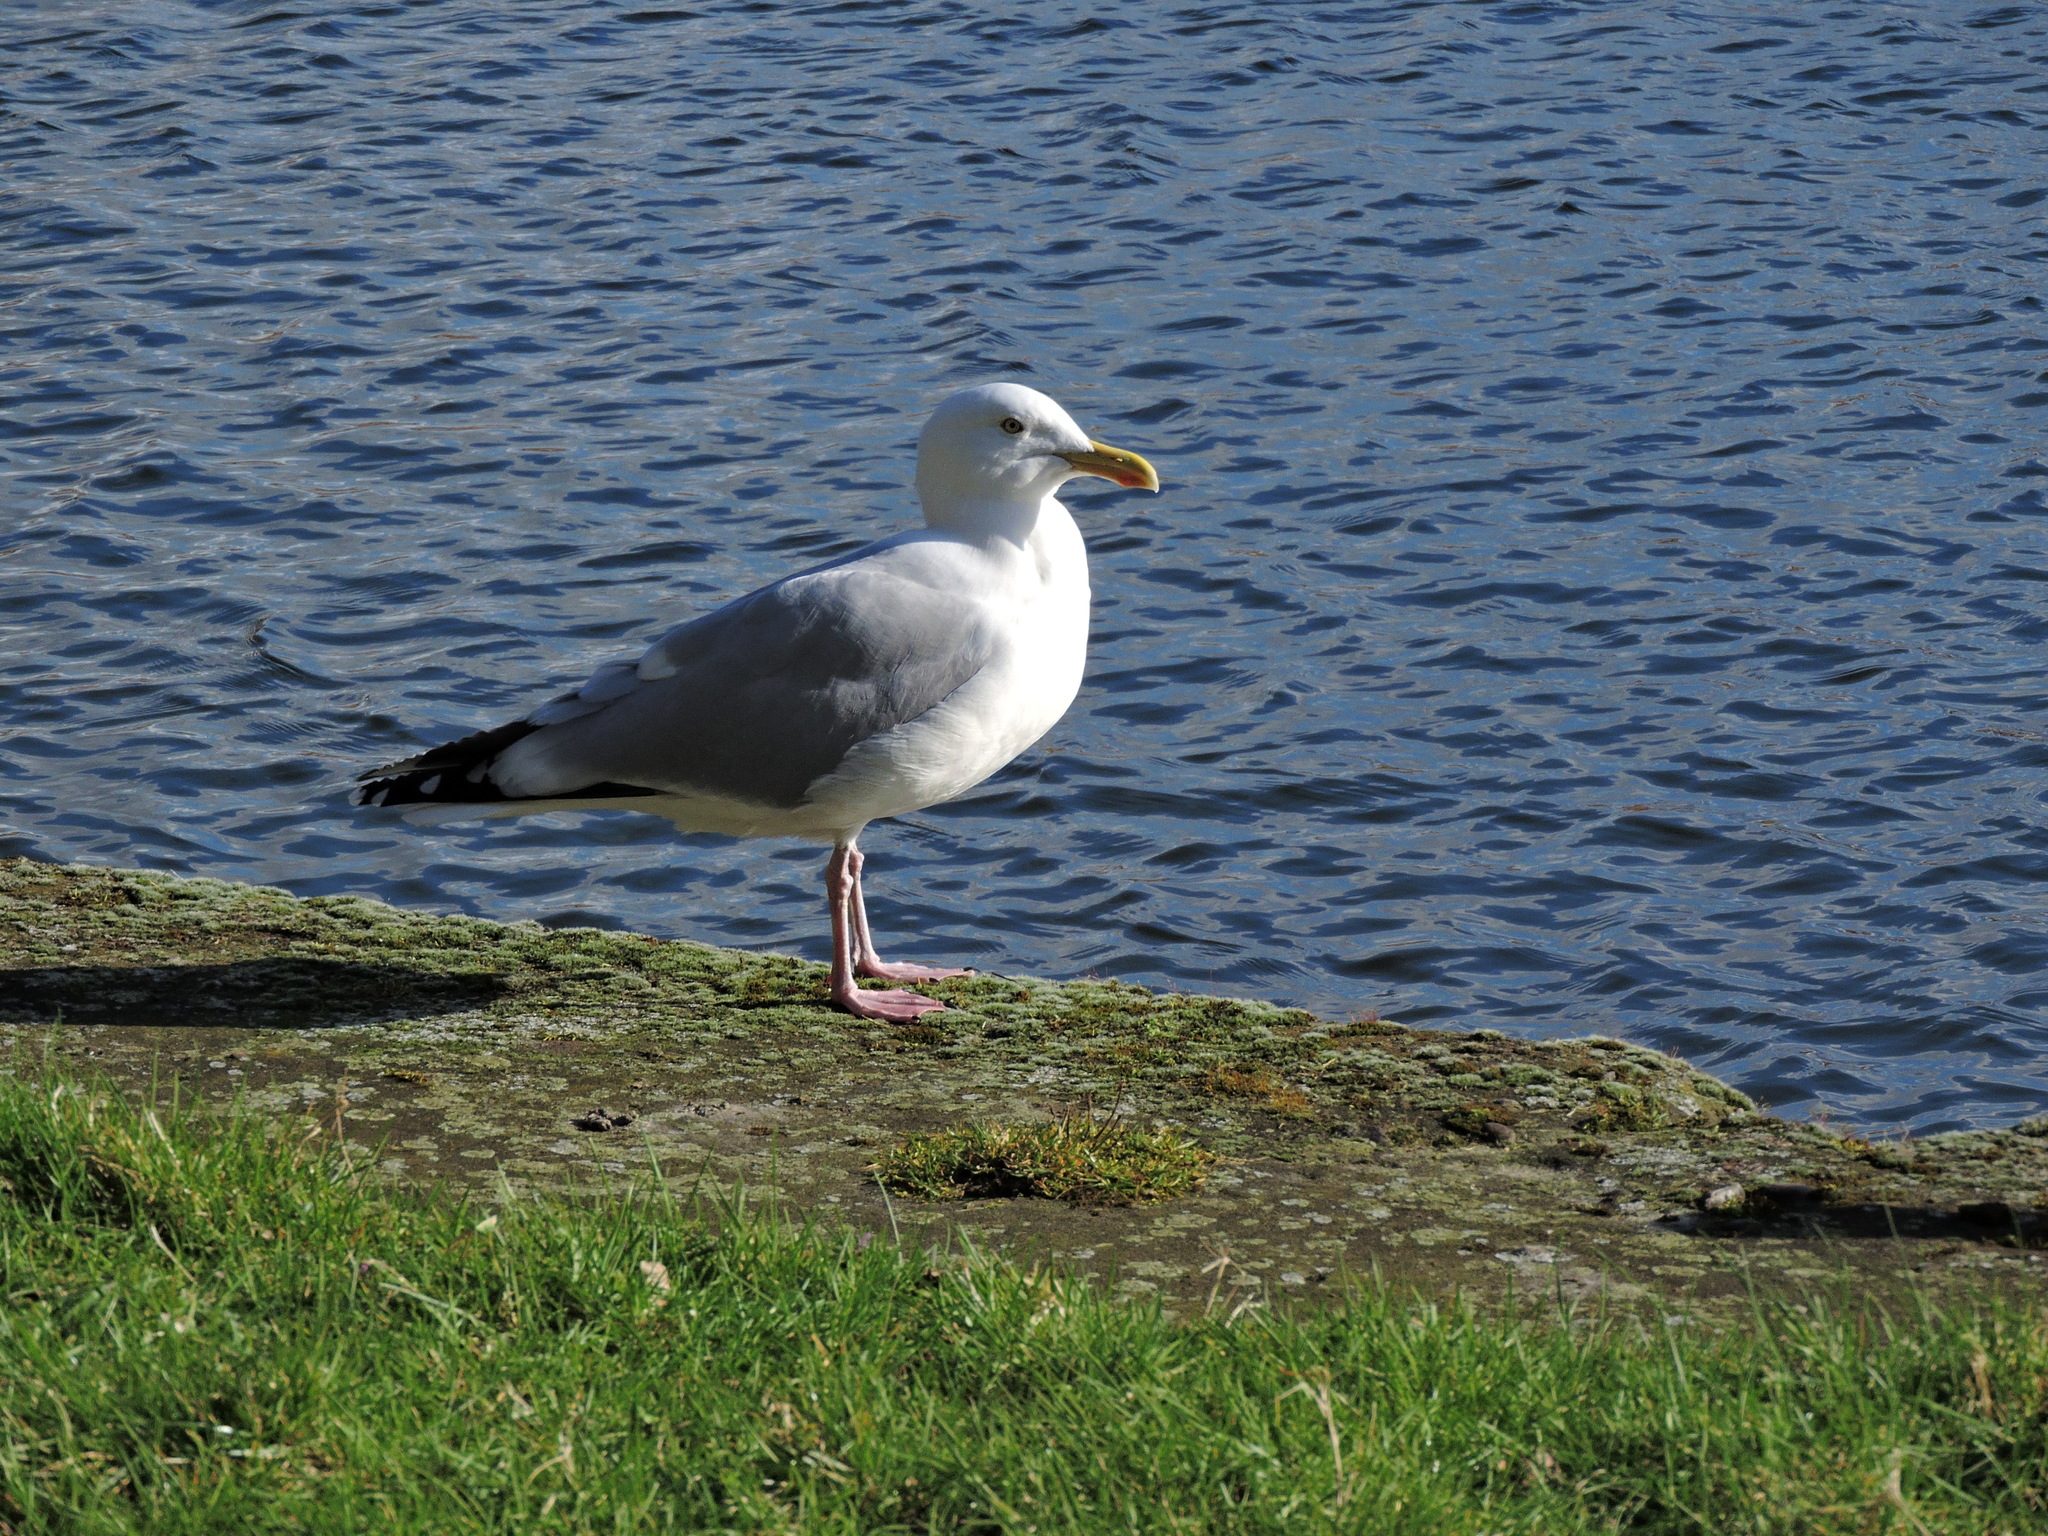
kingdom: Animalia
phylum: Chordata
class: Aves
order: Charadriiformes
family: Laridae
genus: Larus
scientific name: Larus argentatus
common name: Herring gull
